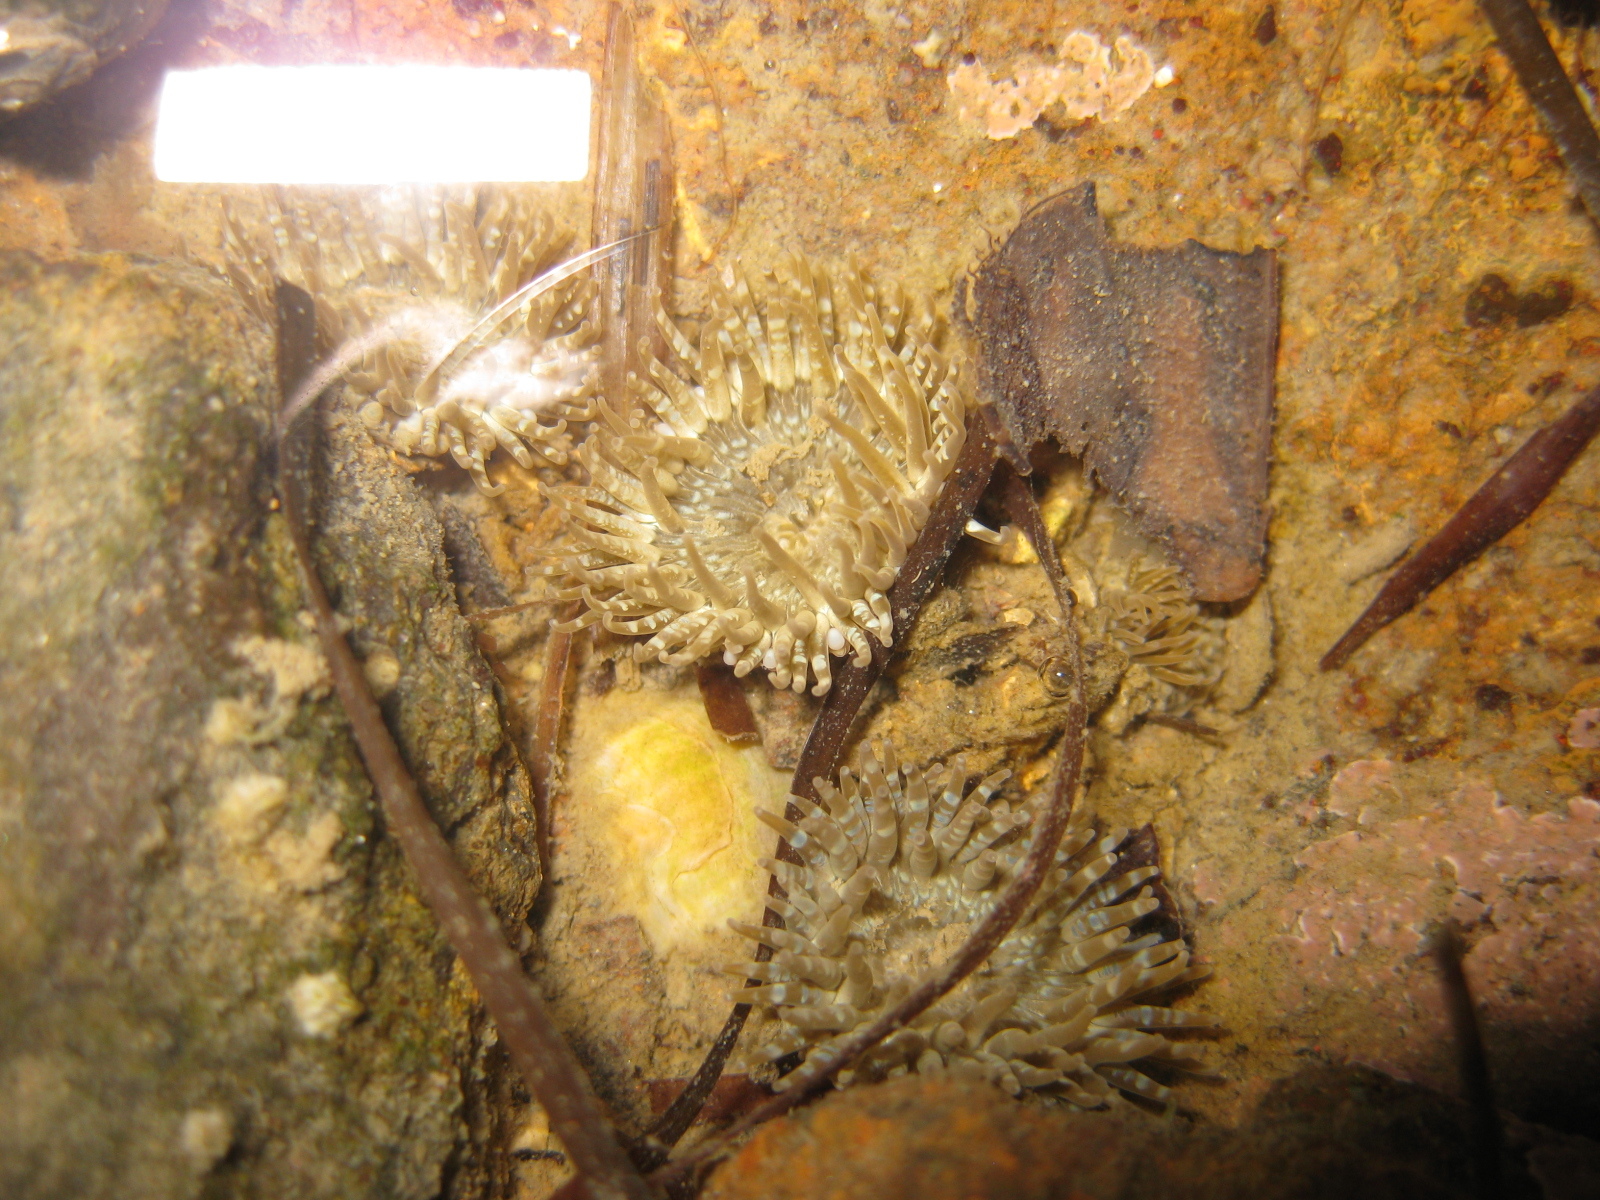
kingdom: Animalia
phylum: Cnidaria
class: Anthozoa
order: Actiniaria
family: Actiniidae
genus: Anthopleura
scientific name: Anthopleura hermaphroditica
